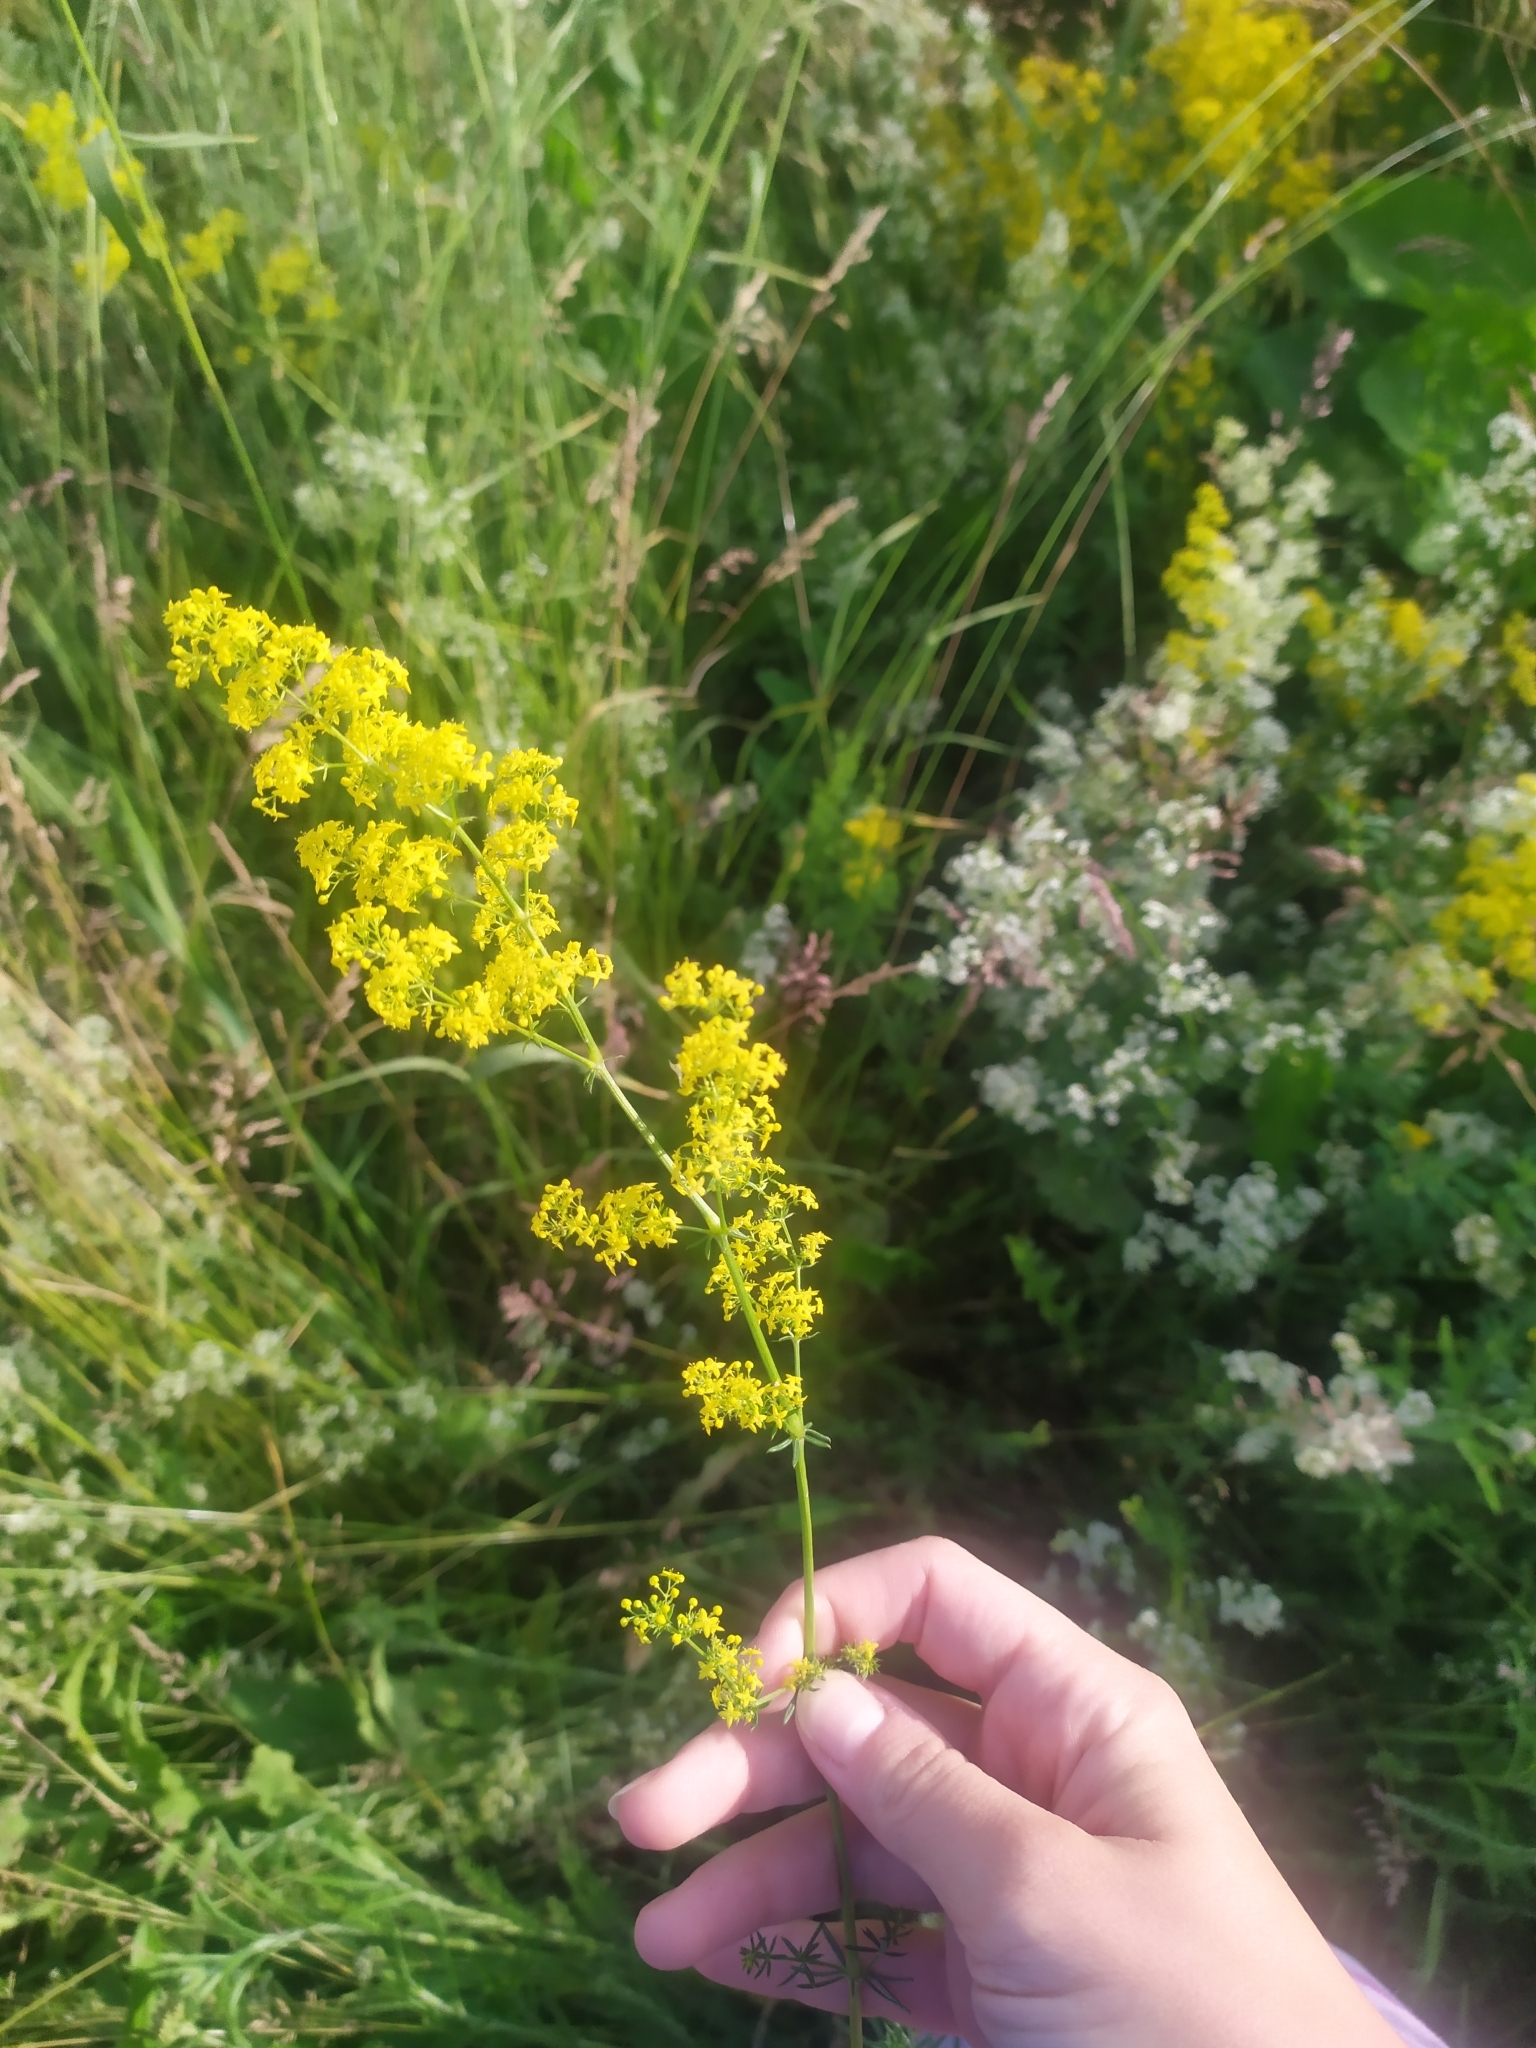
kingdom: Plantae
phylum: Tracheophyta
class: Magnoliopsida
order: Gentianales
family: Rubiaceae
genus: Galium
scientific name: Galium verum
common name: Lady's bedstraw
